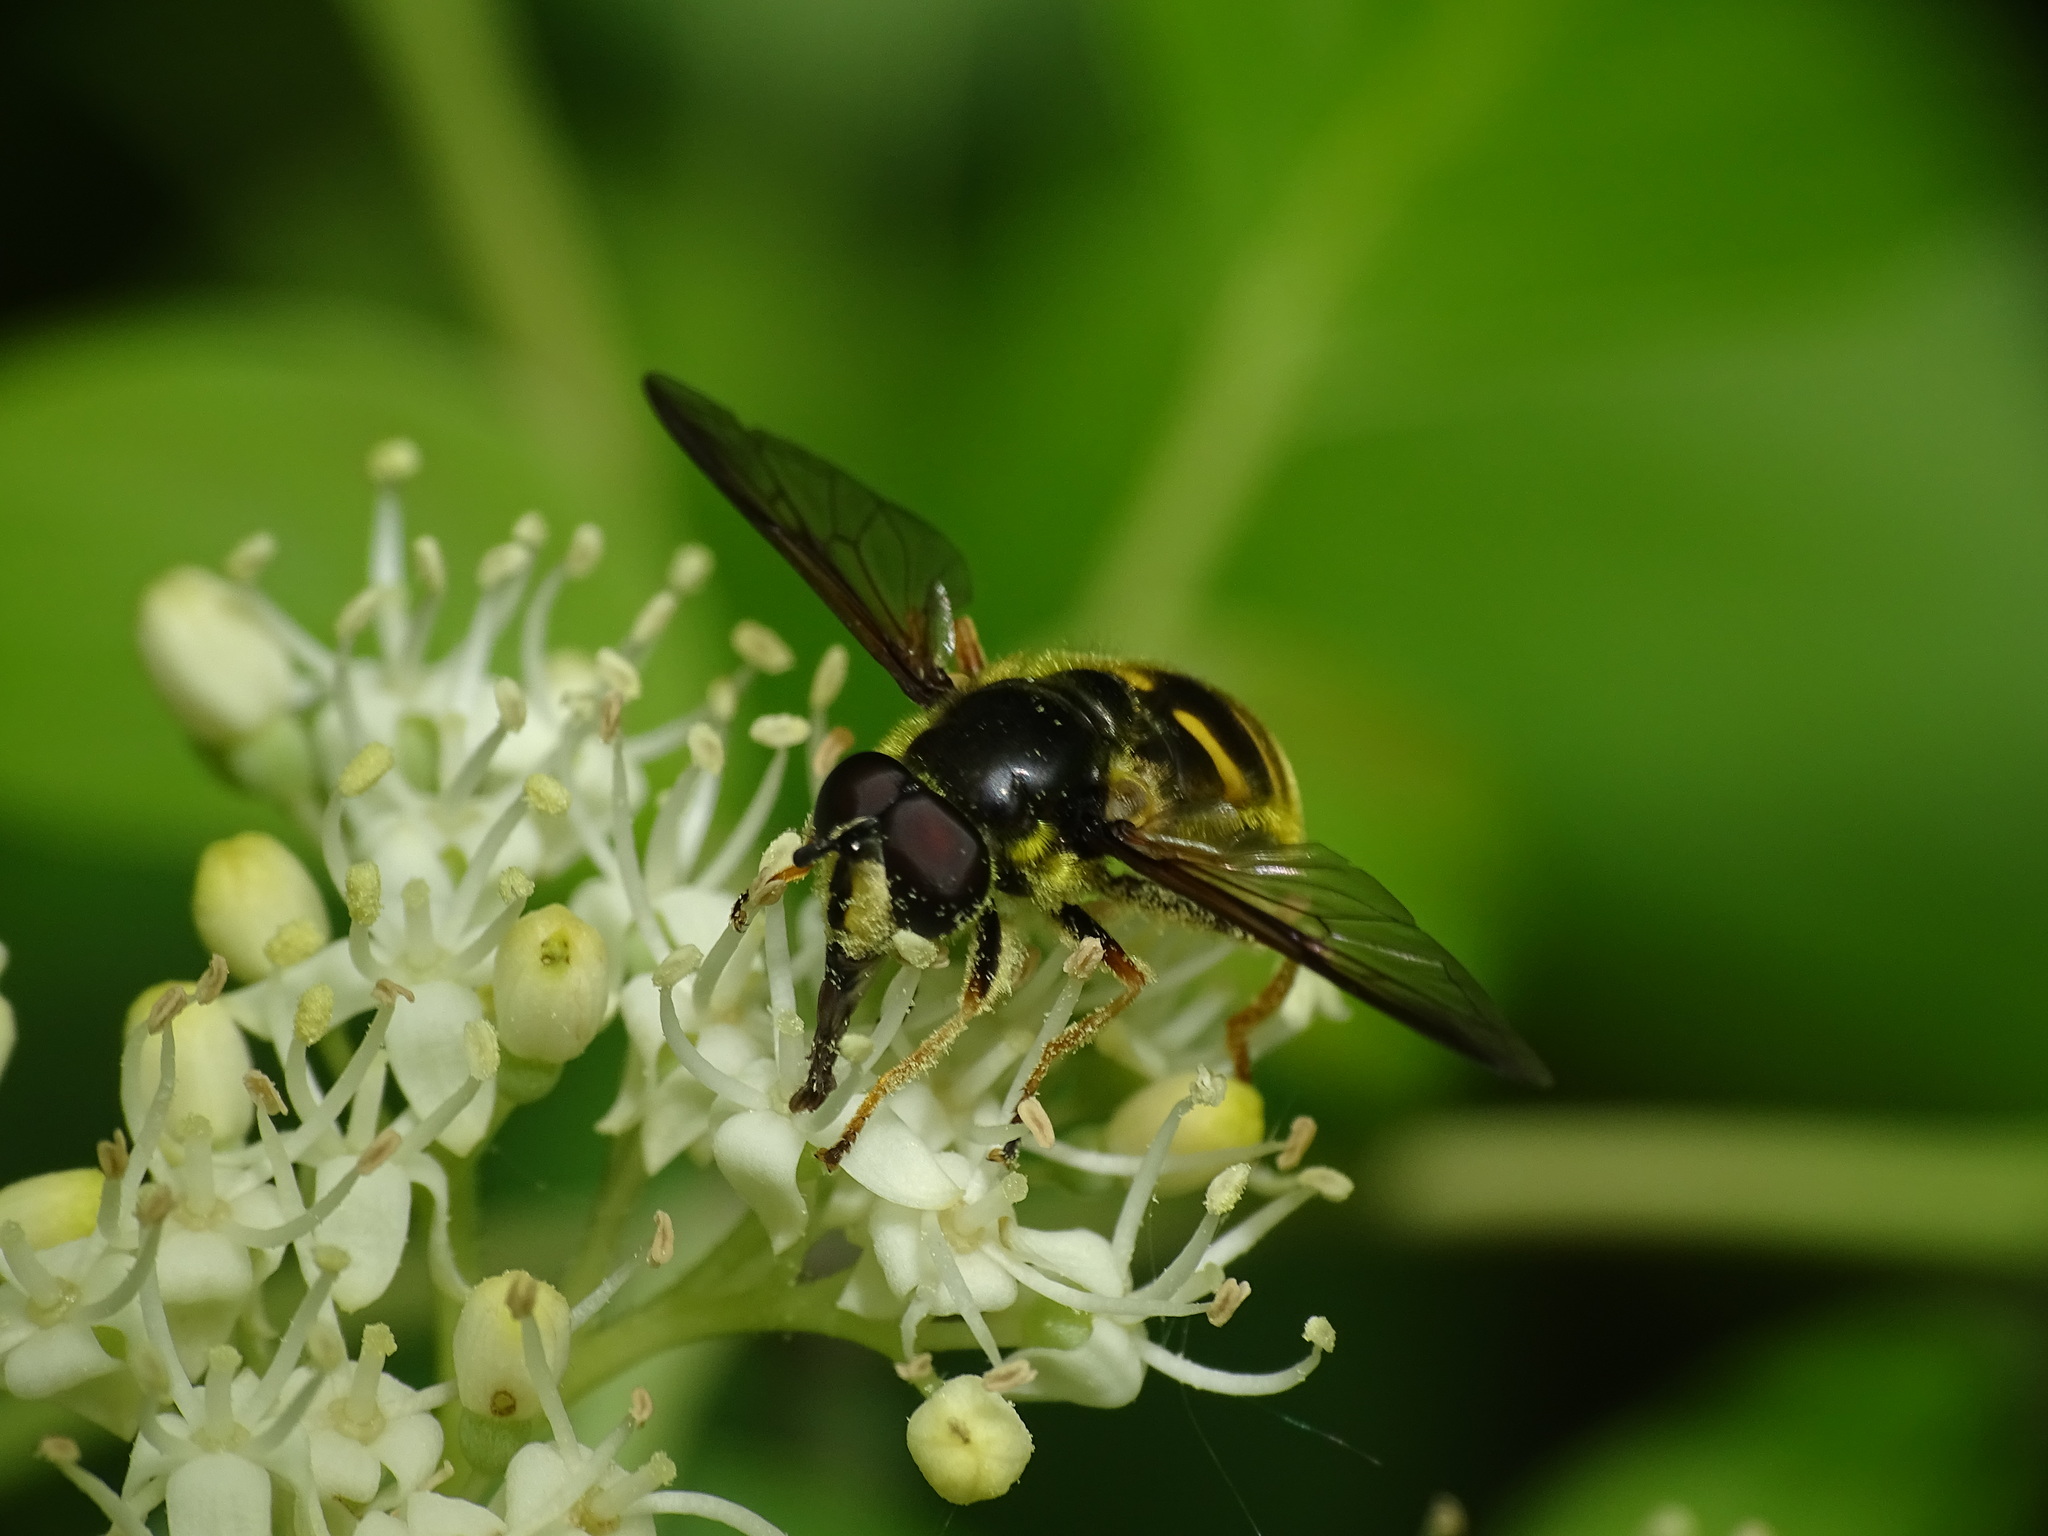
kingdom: Animalia
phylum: Arthropoda
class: Insecta
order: Diptera
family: Syrphidae
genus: Sericomyia
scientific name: Sericomyia chrysotoxoides
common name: Oblique-banded pond fly
